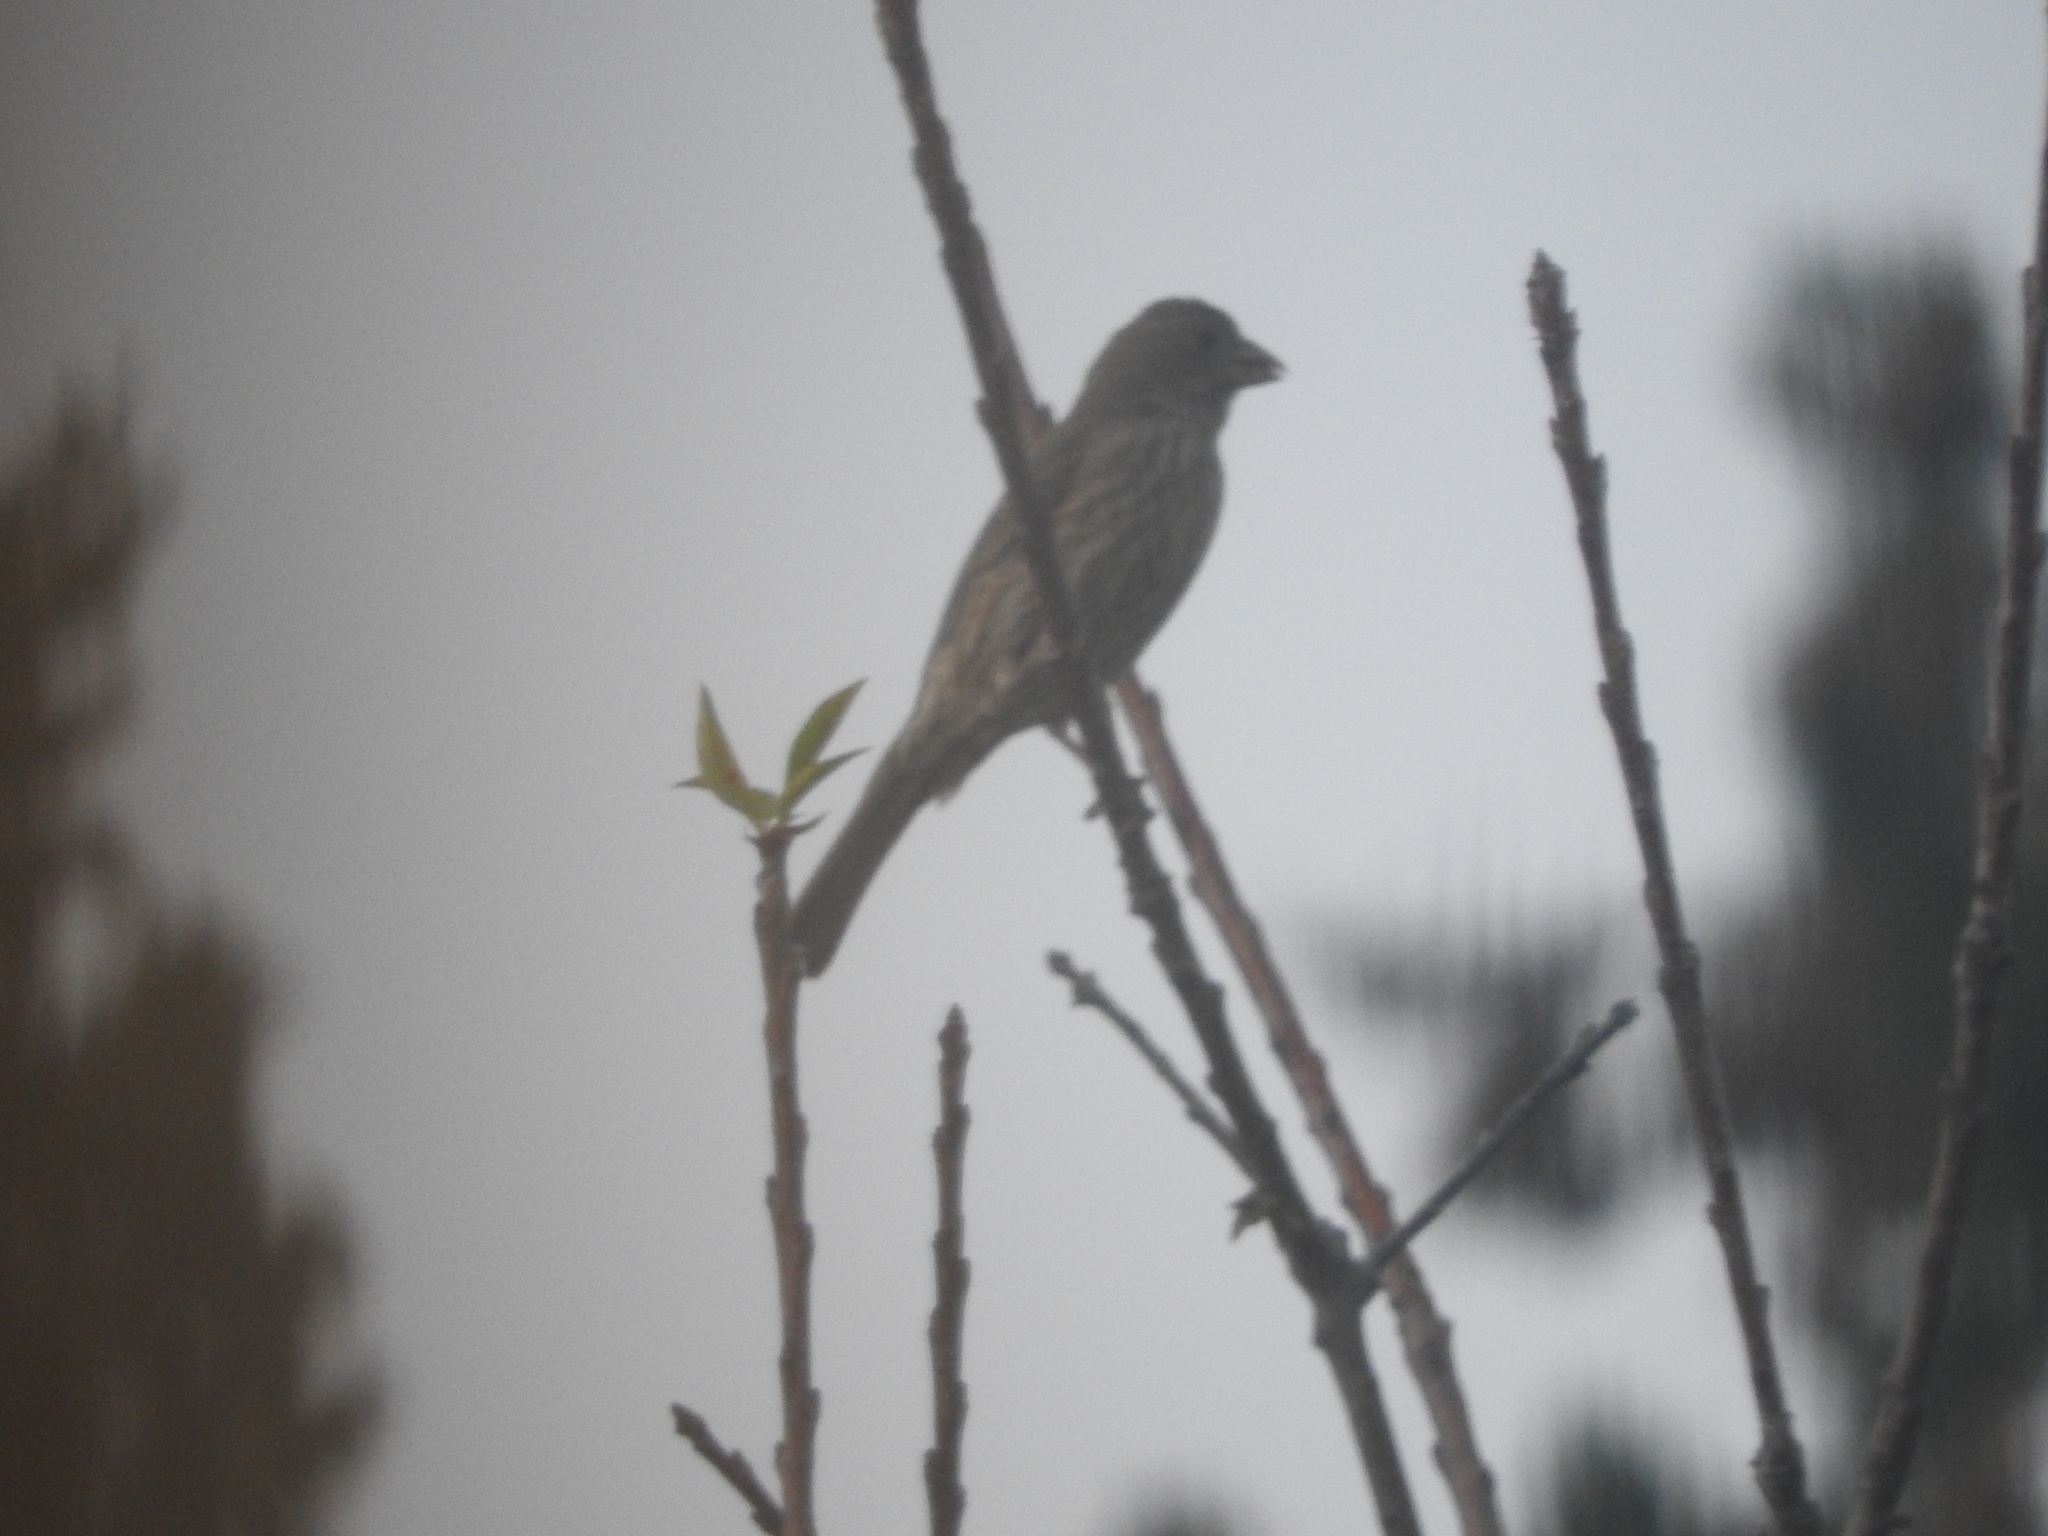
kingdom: Animalia
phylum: Chordata
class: Aves
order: Passeriformes
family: Fringillidae
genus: Haemorhous
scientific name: Haemorhous mexicanus
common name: House finch
